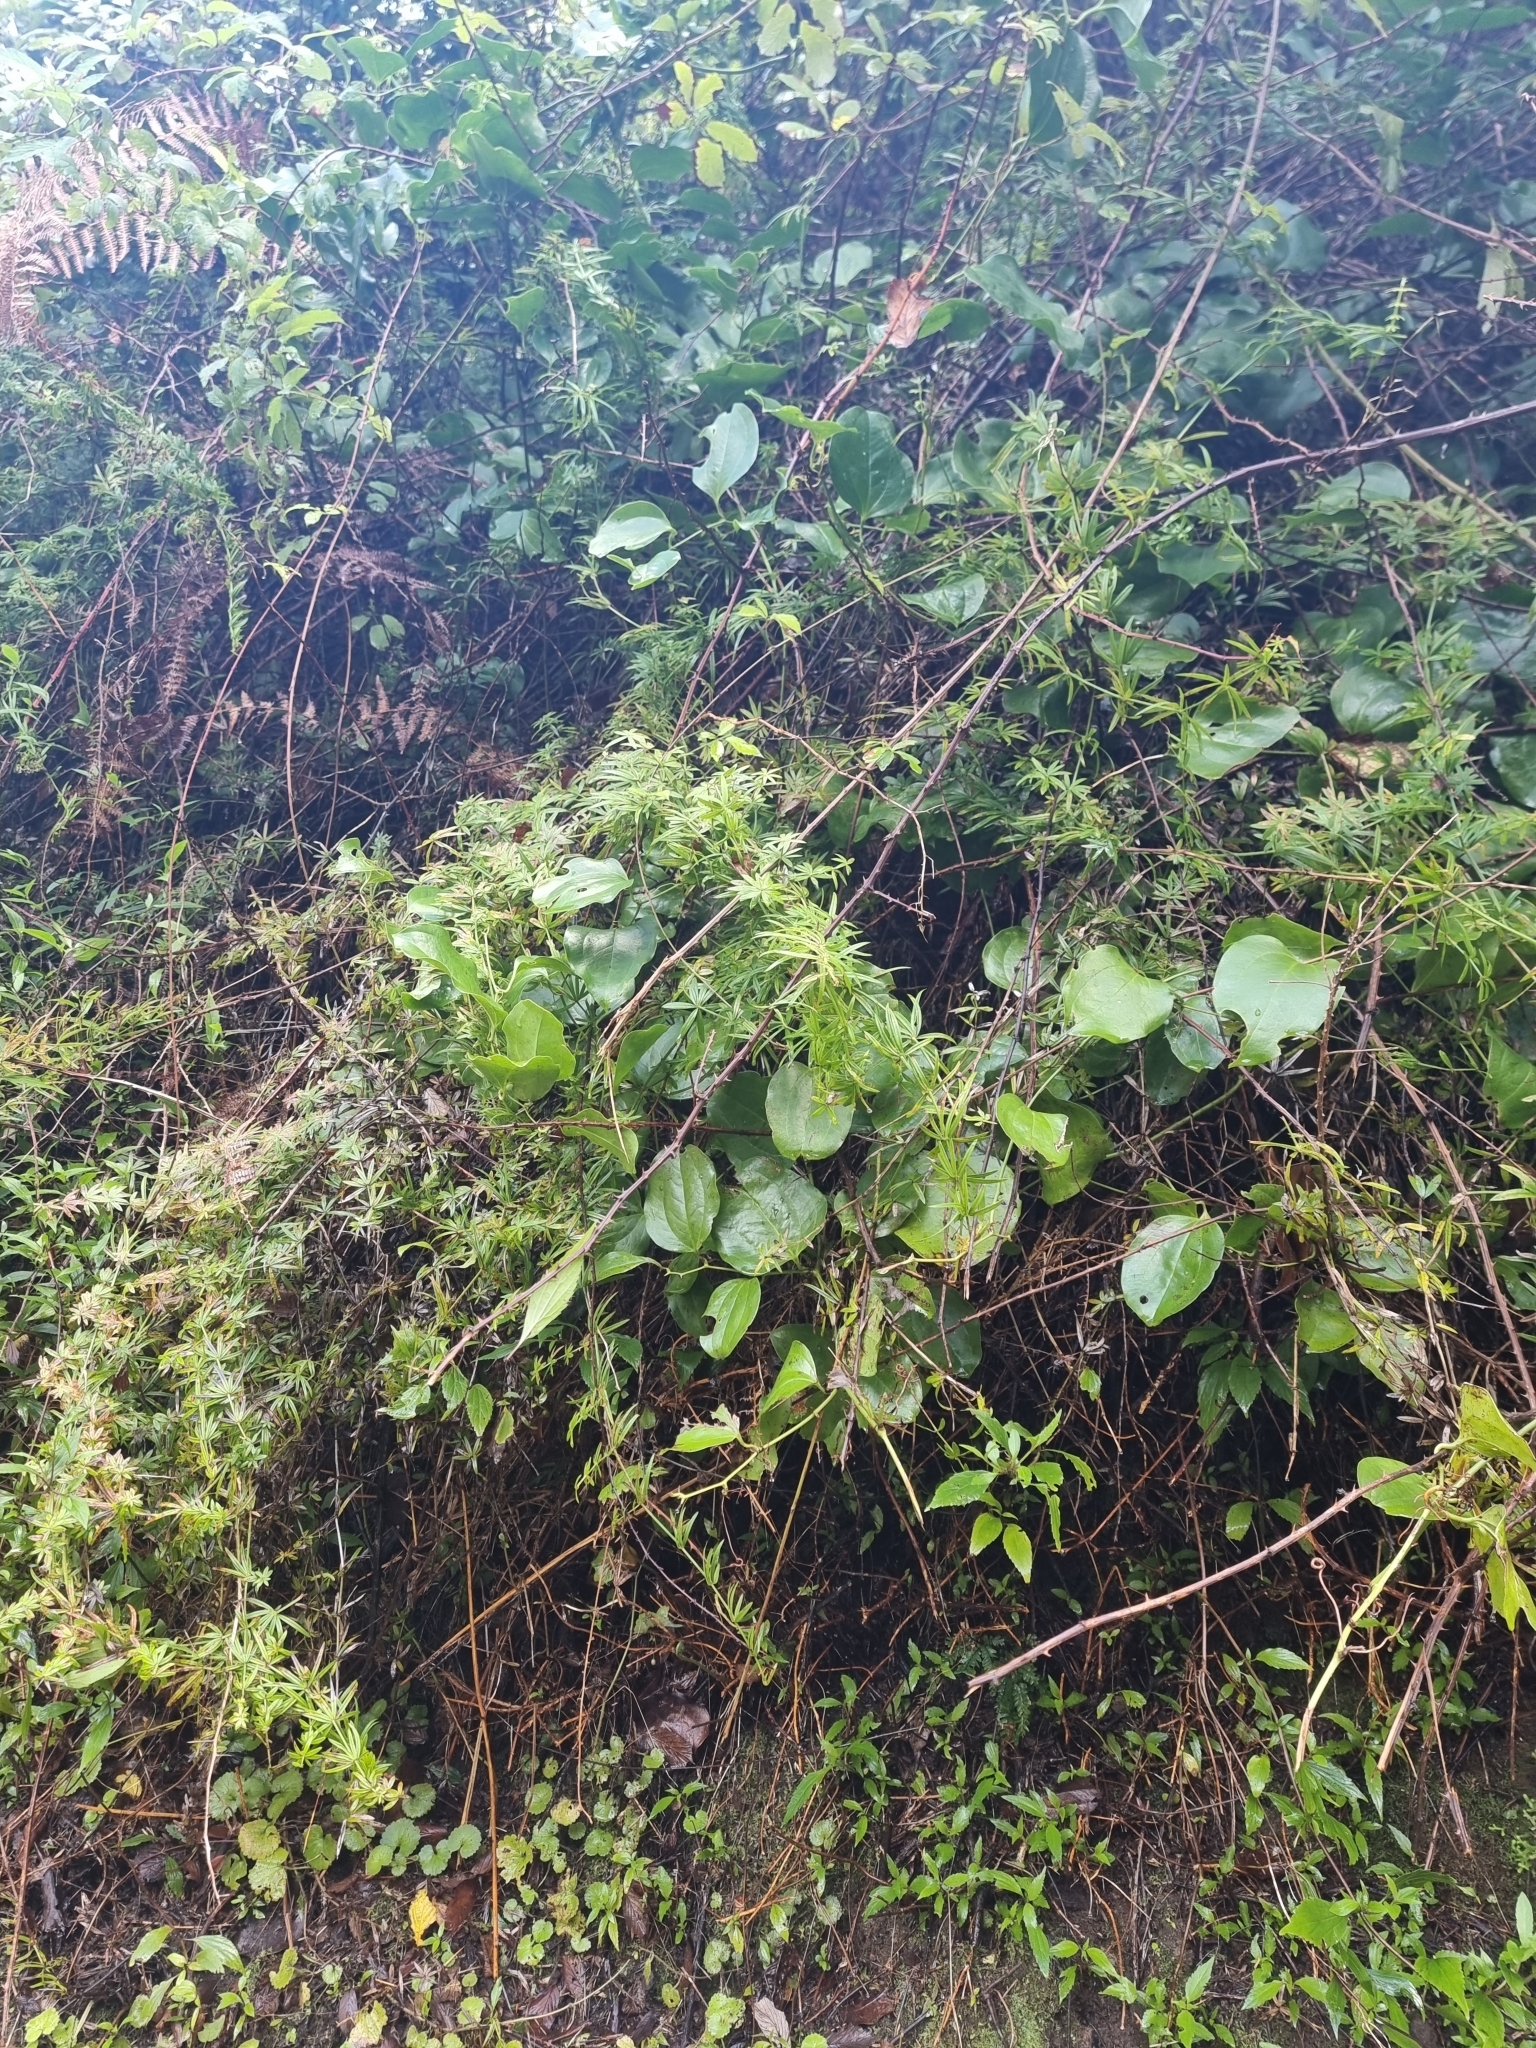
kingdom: Plantae
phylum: Tracheophyta
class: Liliopsida
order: Liliales
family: Smilacaceae
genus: Smilax
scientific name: Smilax canariensis
